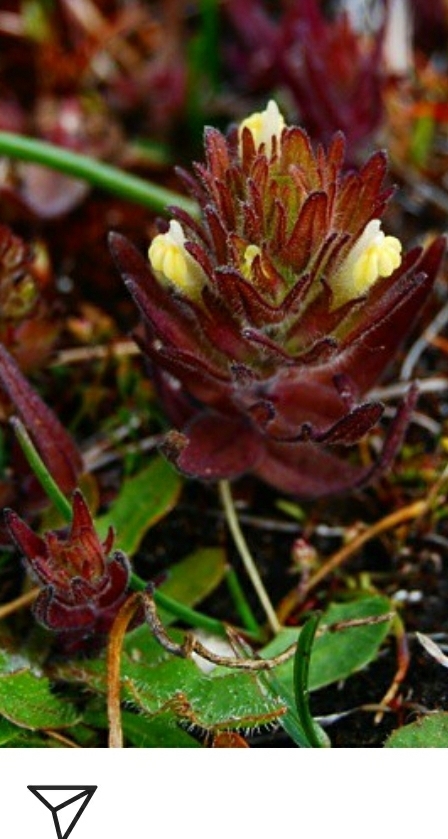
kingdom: Plantae
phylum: Tracheophyta
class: Magnoliopsida
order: Lamiales
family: Orobanchaceae
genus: Castilleja
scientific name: Castilleja victoriae
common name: Victoria paintbrush
